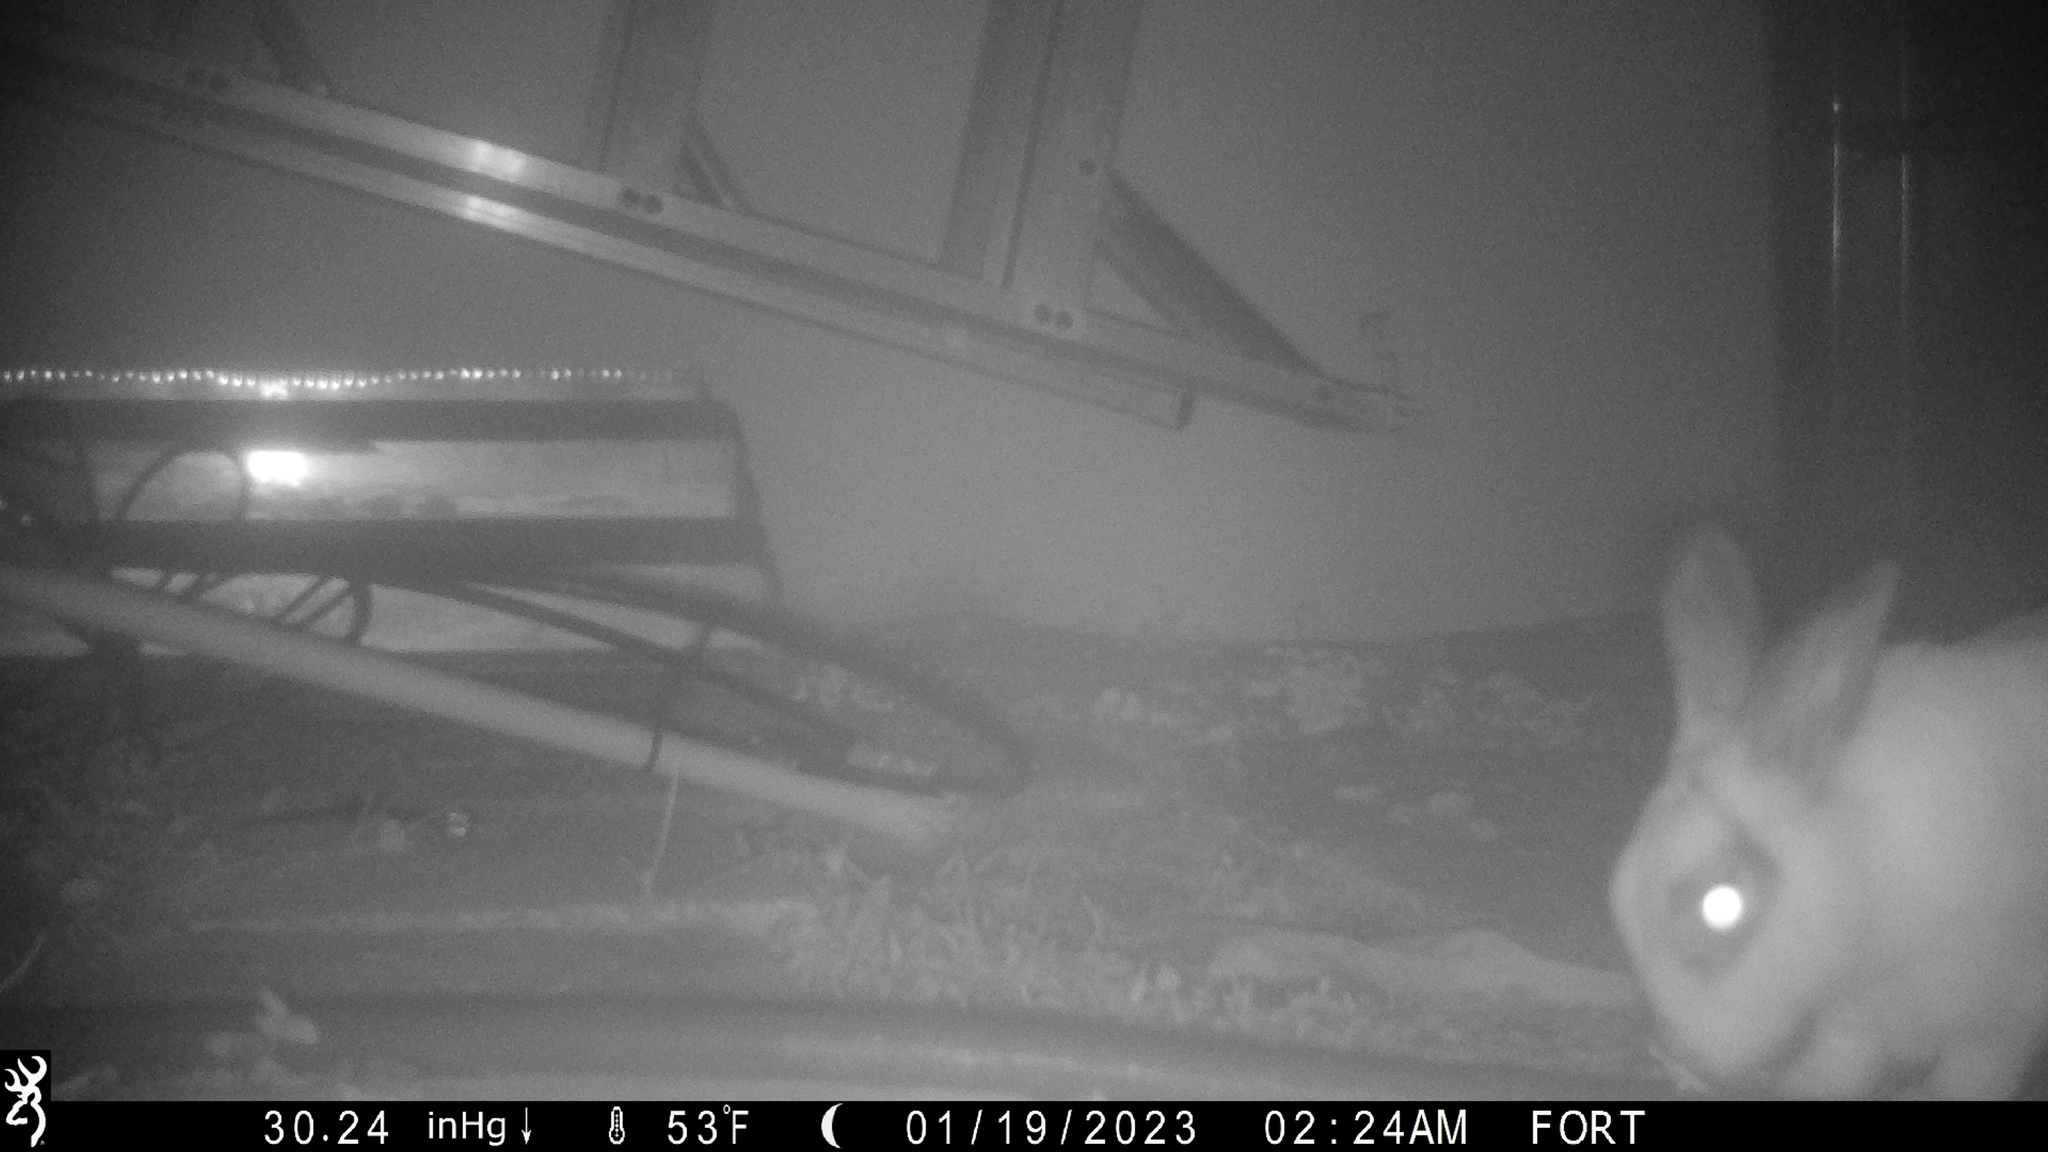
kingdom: Animalia
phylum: Chordata
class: Mammalia
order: Lagomorpha
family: Leporidae
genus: Oryctolagus
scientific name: Oryctolagus cuniculus
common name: European rabbit
